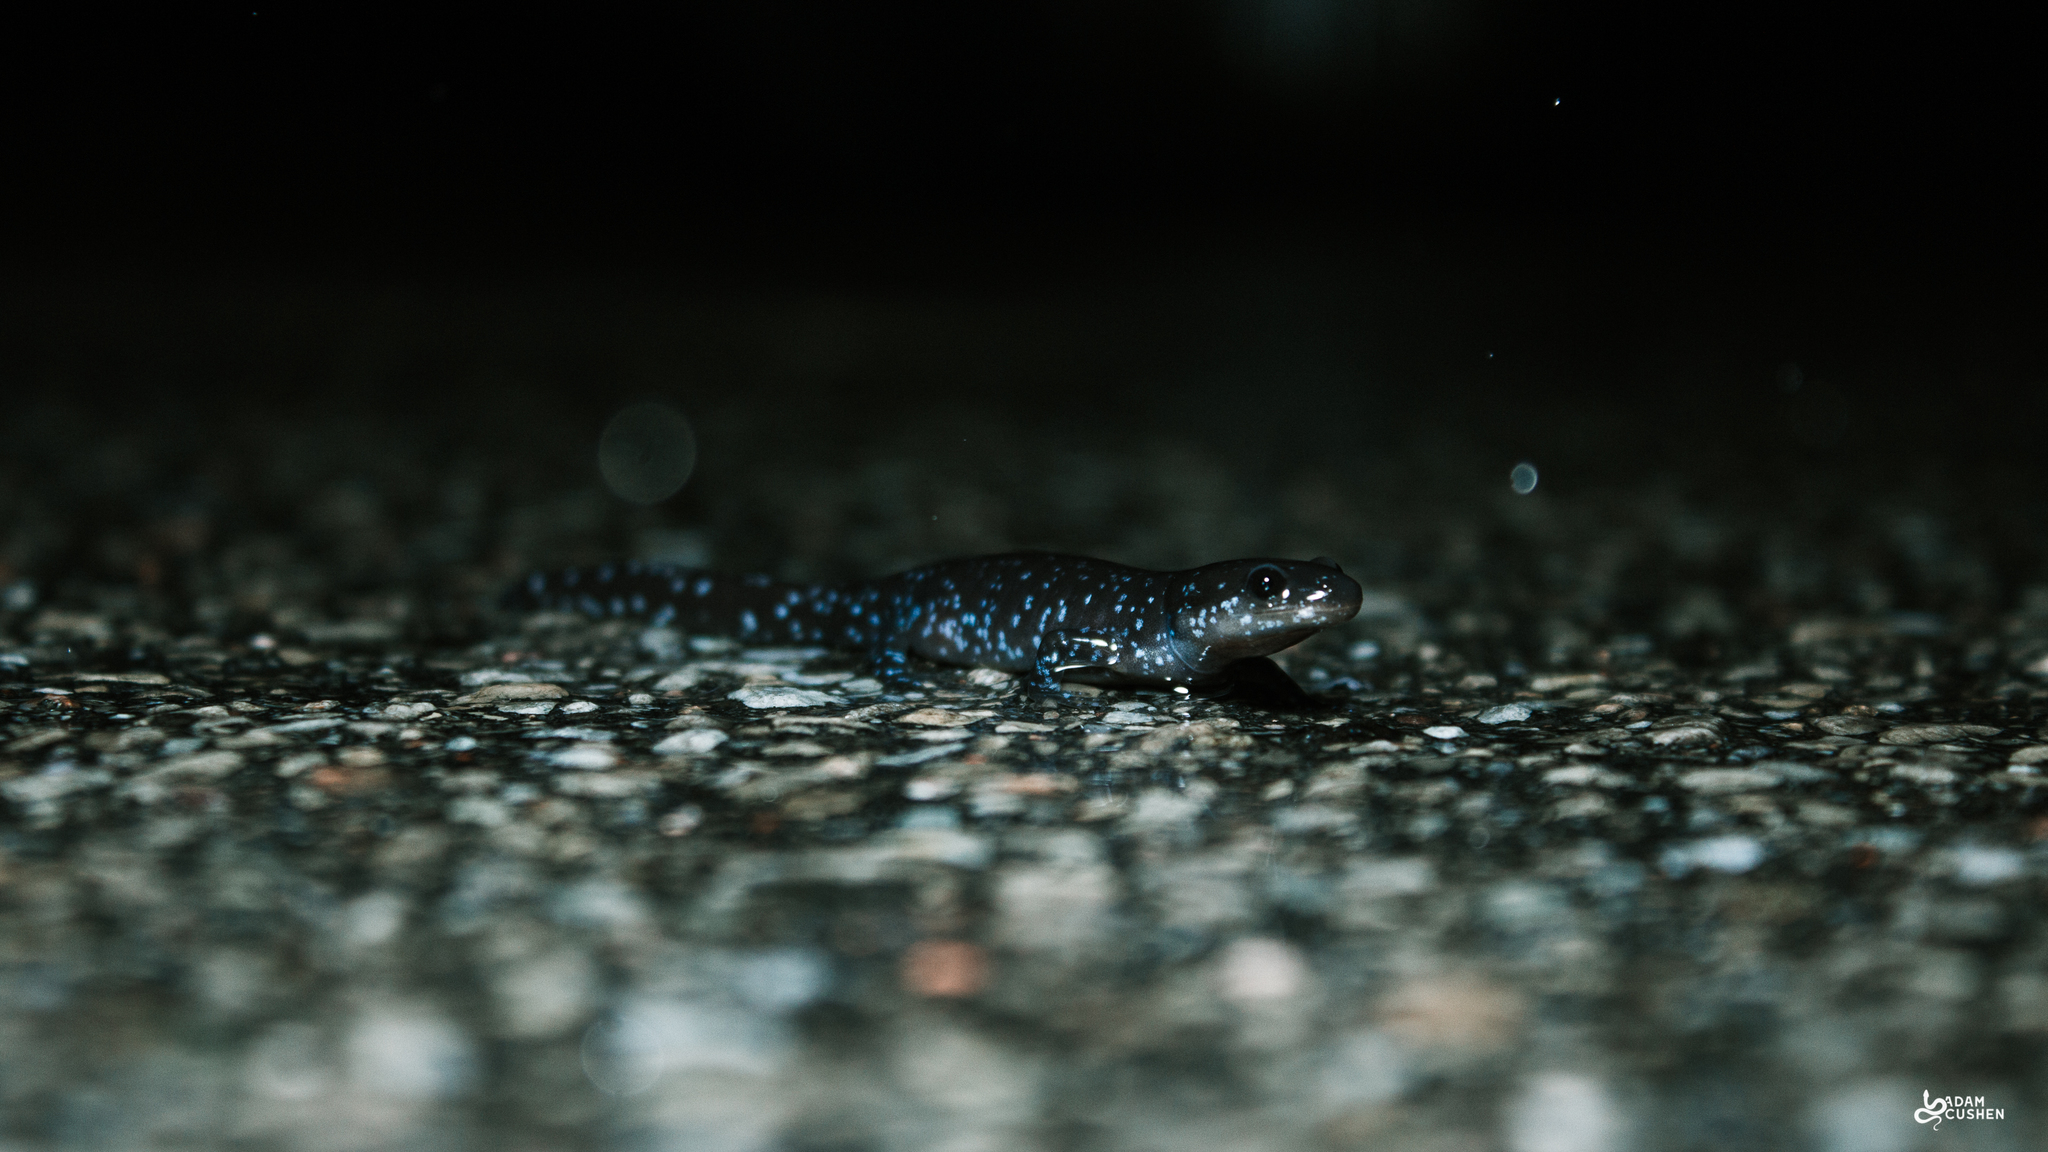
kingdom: Animalia
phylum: Chordata
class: Amphibia
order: Caudata
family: Ambystomatidae
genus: Ambystoma
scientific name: Ambystoma laterale
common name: Blue-spotted salamander
